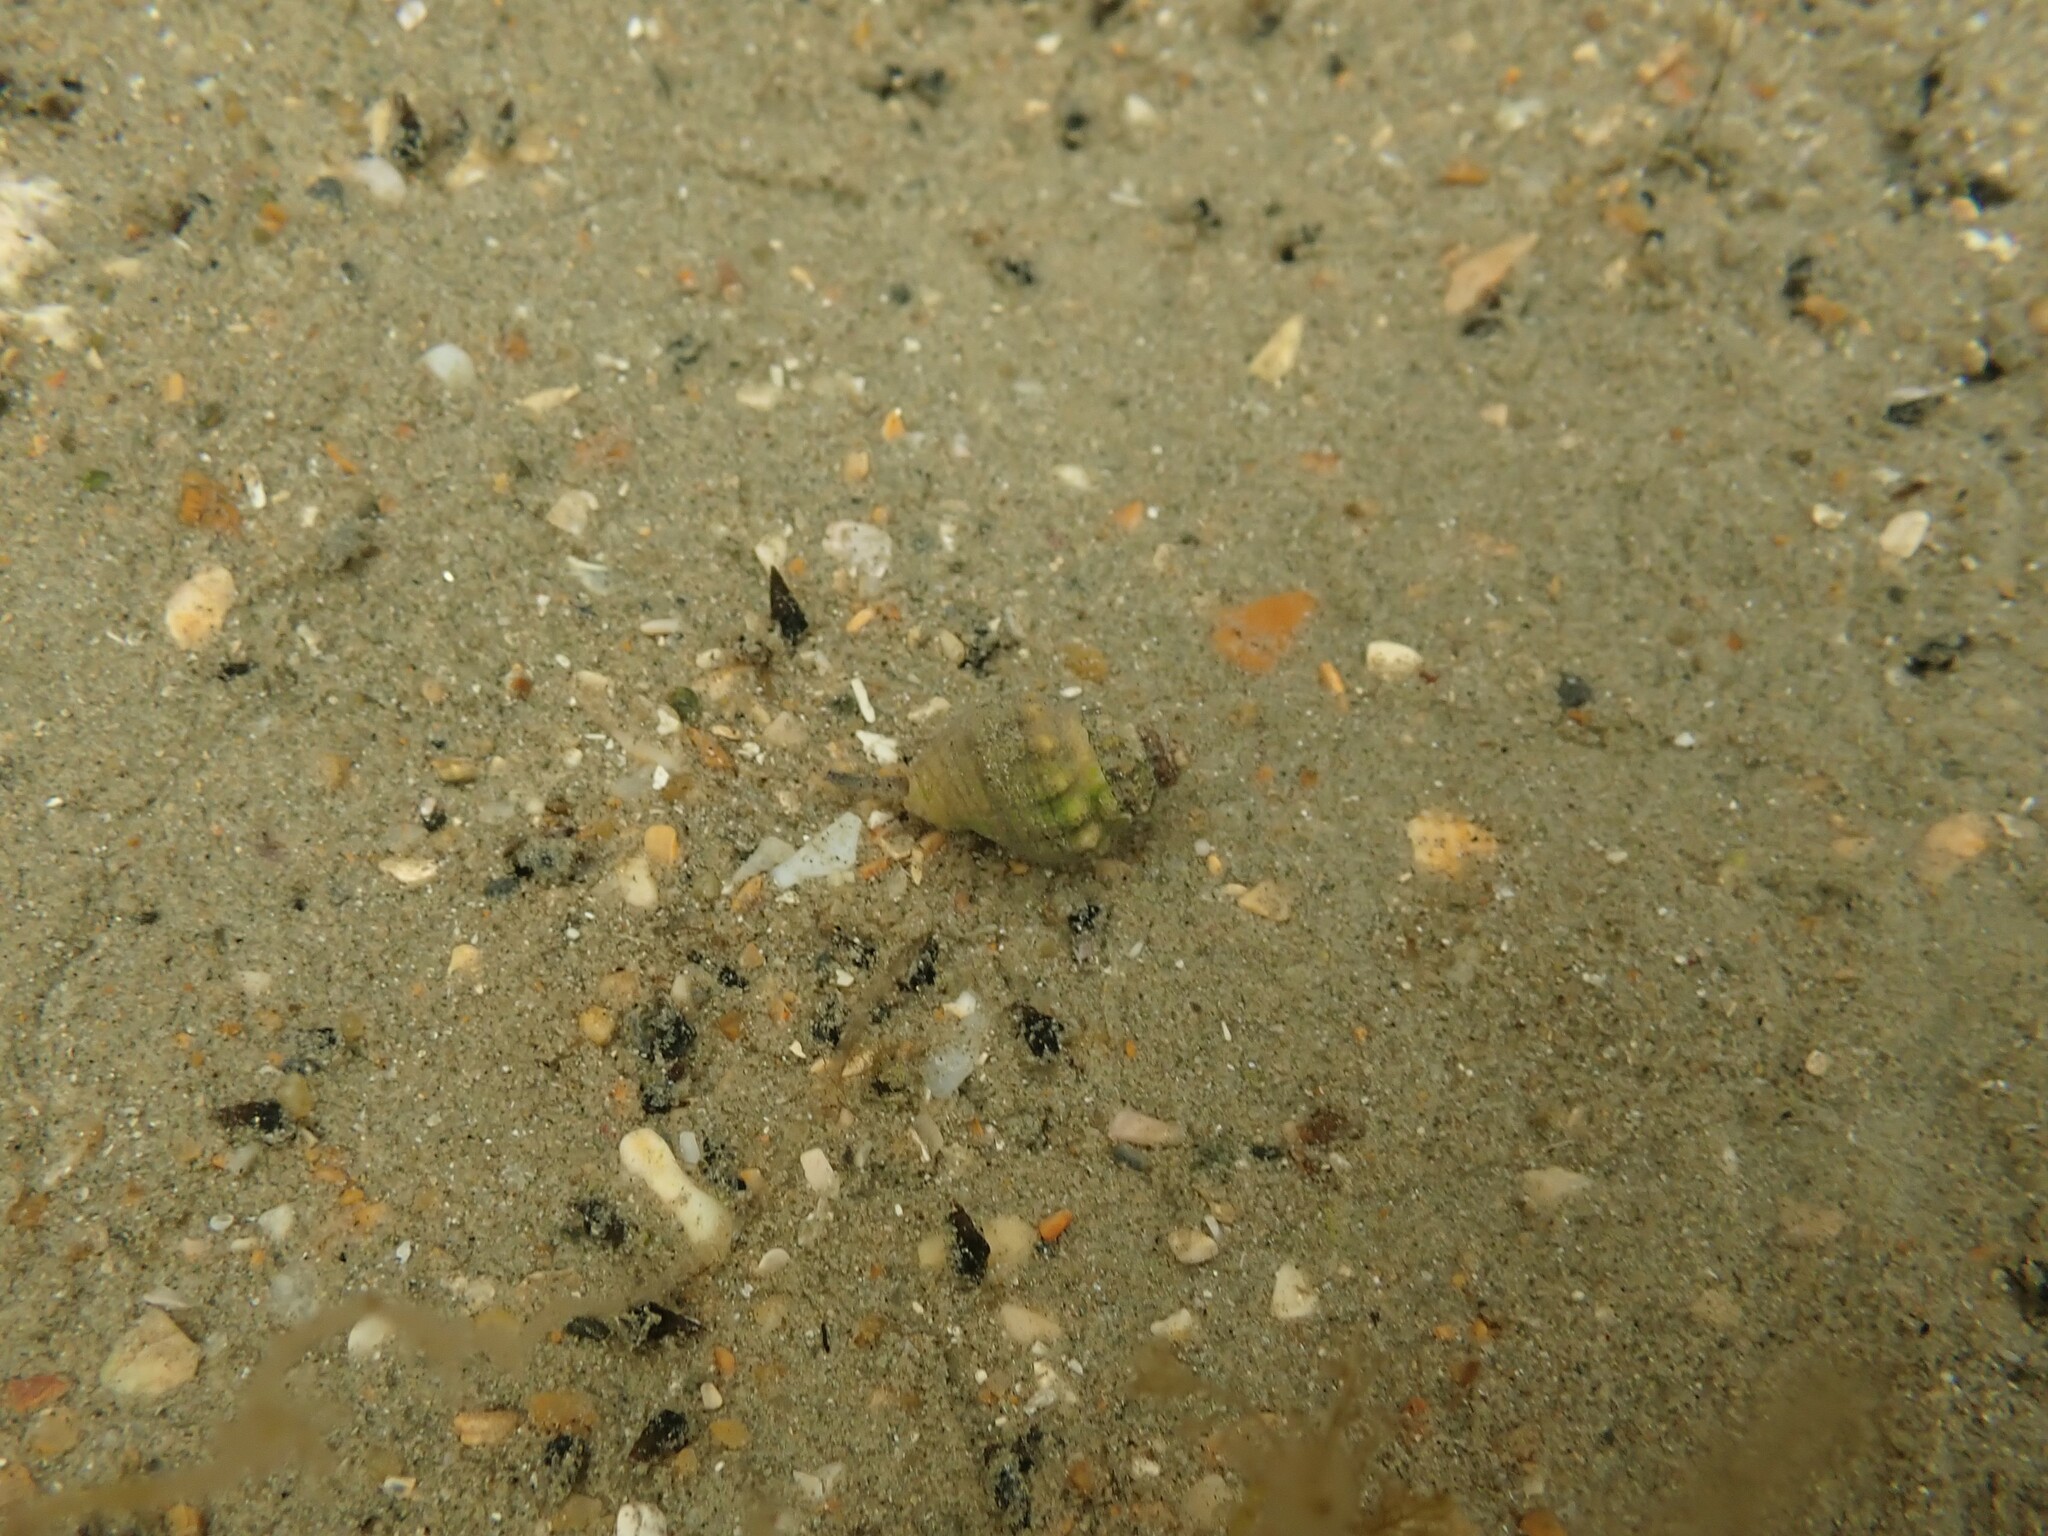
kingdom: Animalia
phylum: Mollusca
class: Gastropoda
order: Neogastropoda
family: Cominellidae
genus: Cominella
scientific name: Cominella glandiformis
